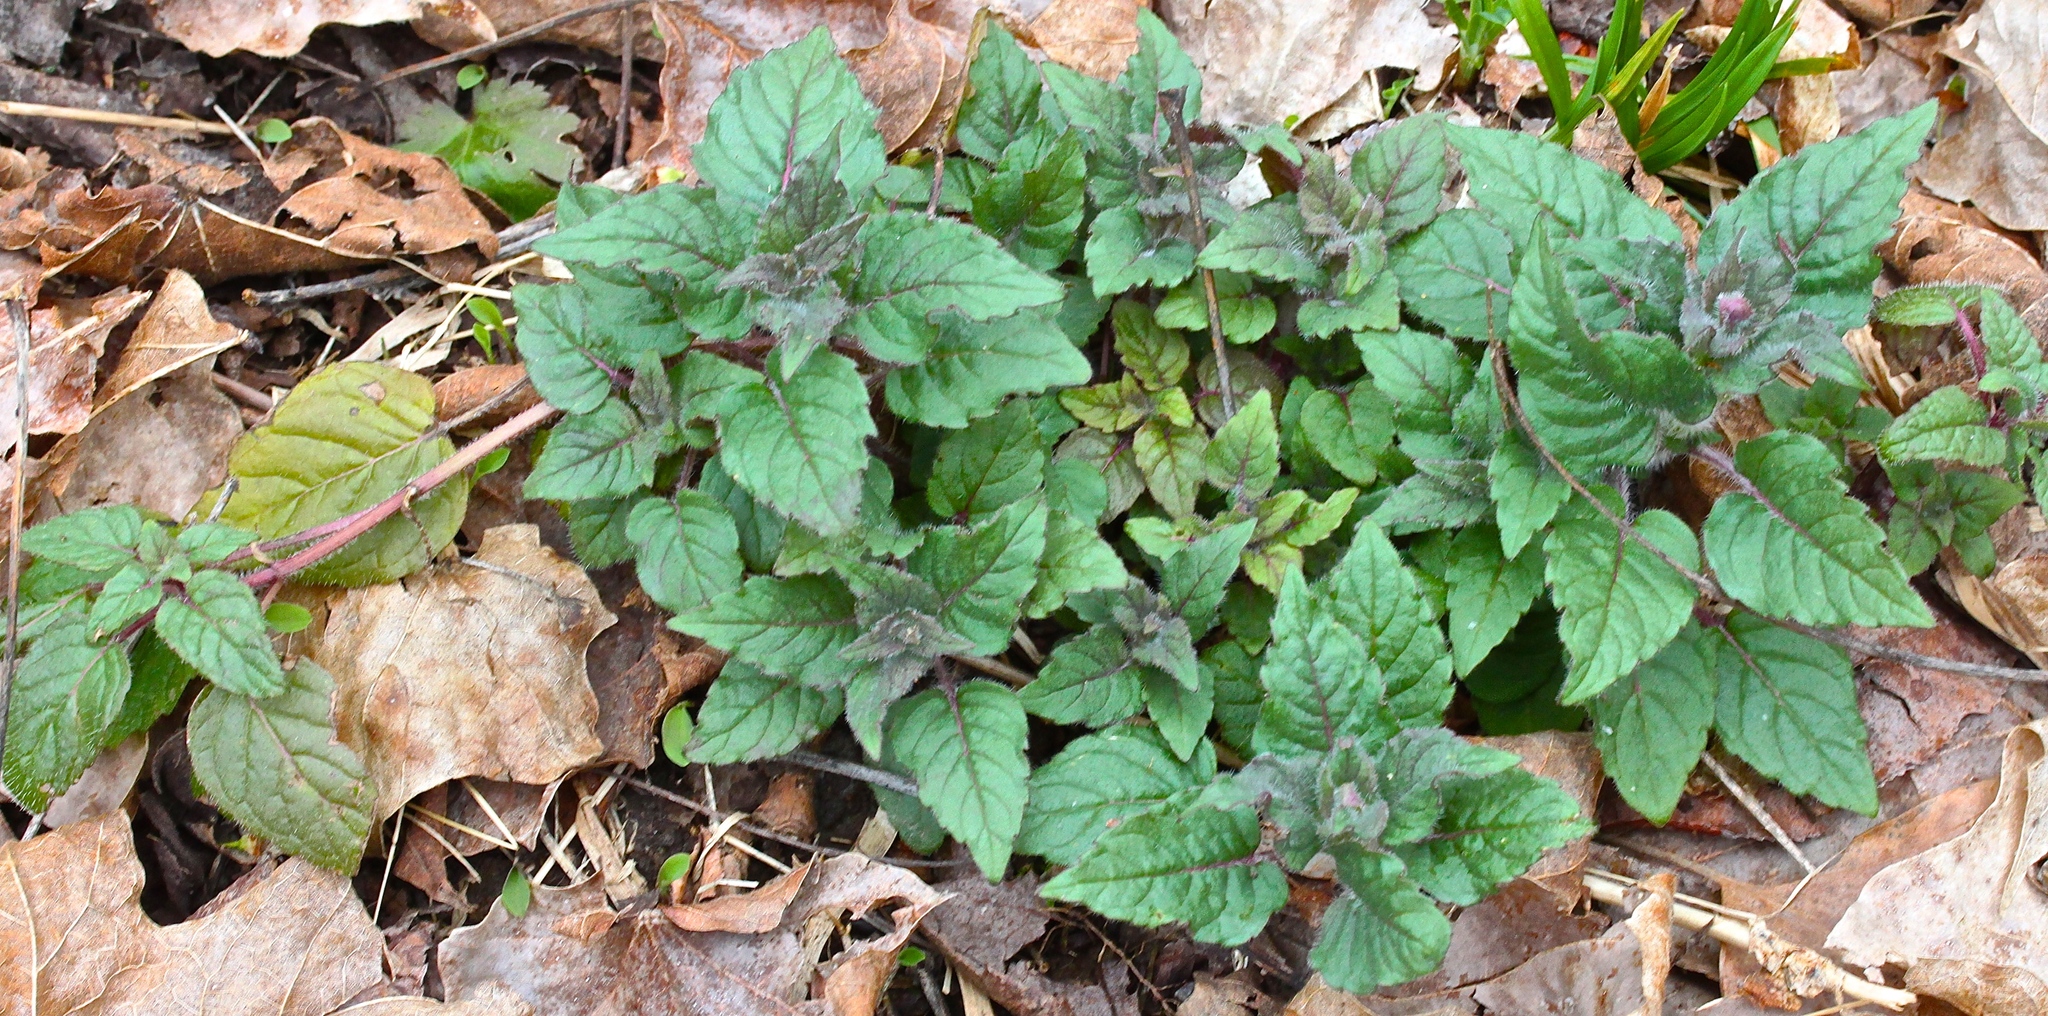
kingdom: Plantae
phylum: Tracheophyta
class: Magnoliopsida
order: Lamiales
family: Lamiaceae
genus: Blephilia
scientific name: Blephilia hirsuta
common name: Hairy blephilia
